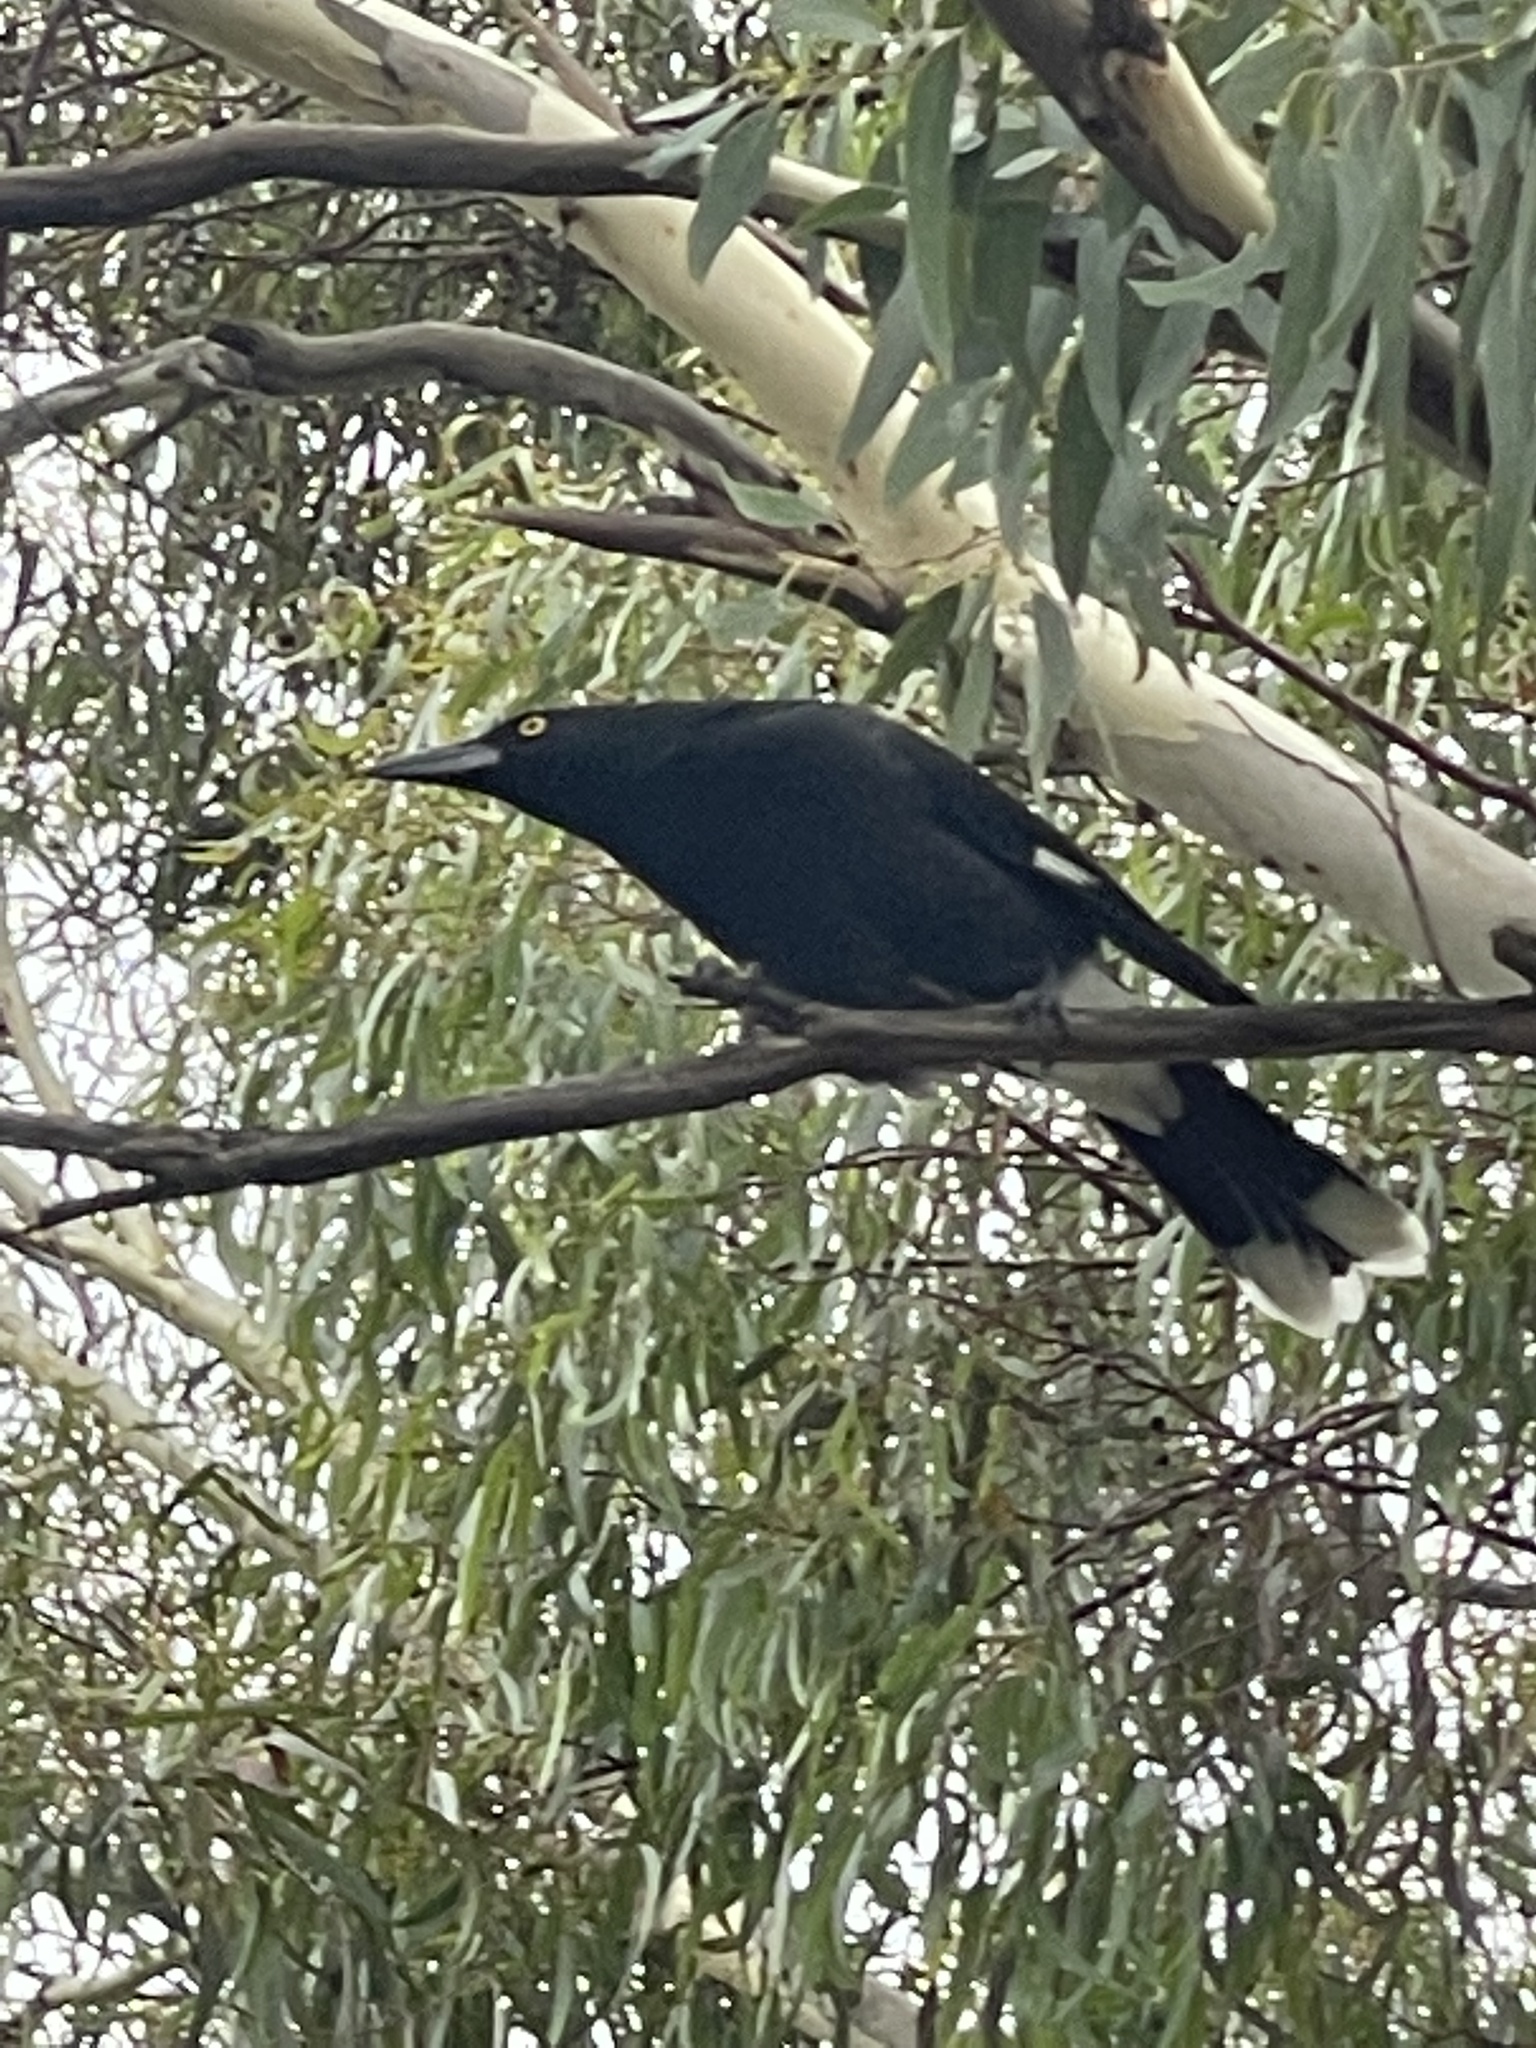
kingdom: Animalia
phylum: Chordata
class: Aves
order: Passeriformes
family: Cracticidae
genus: Strepera
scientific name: Strepera graculina
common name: Pied currawong
